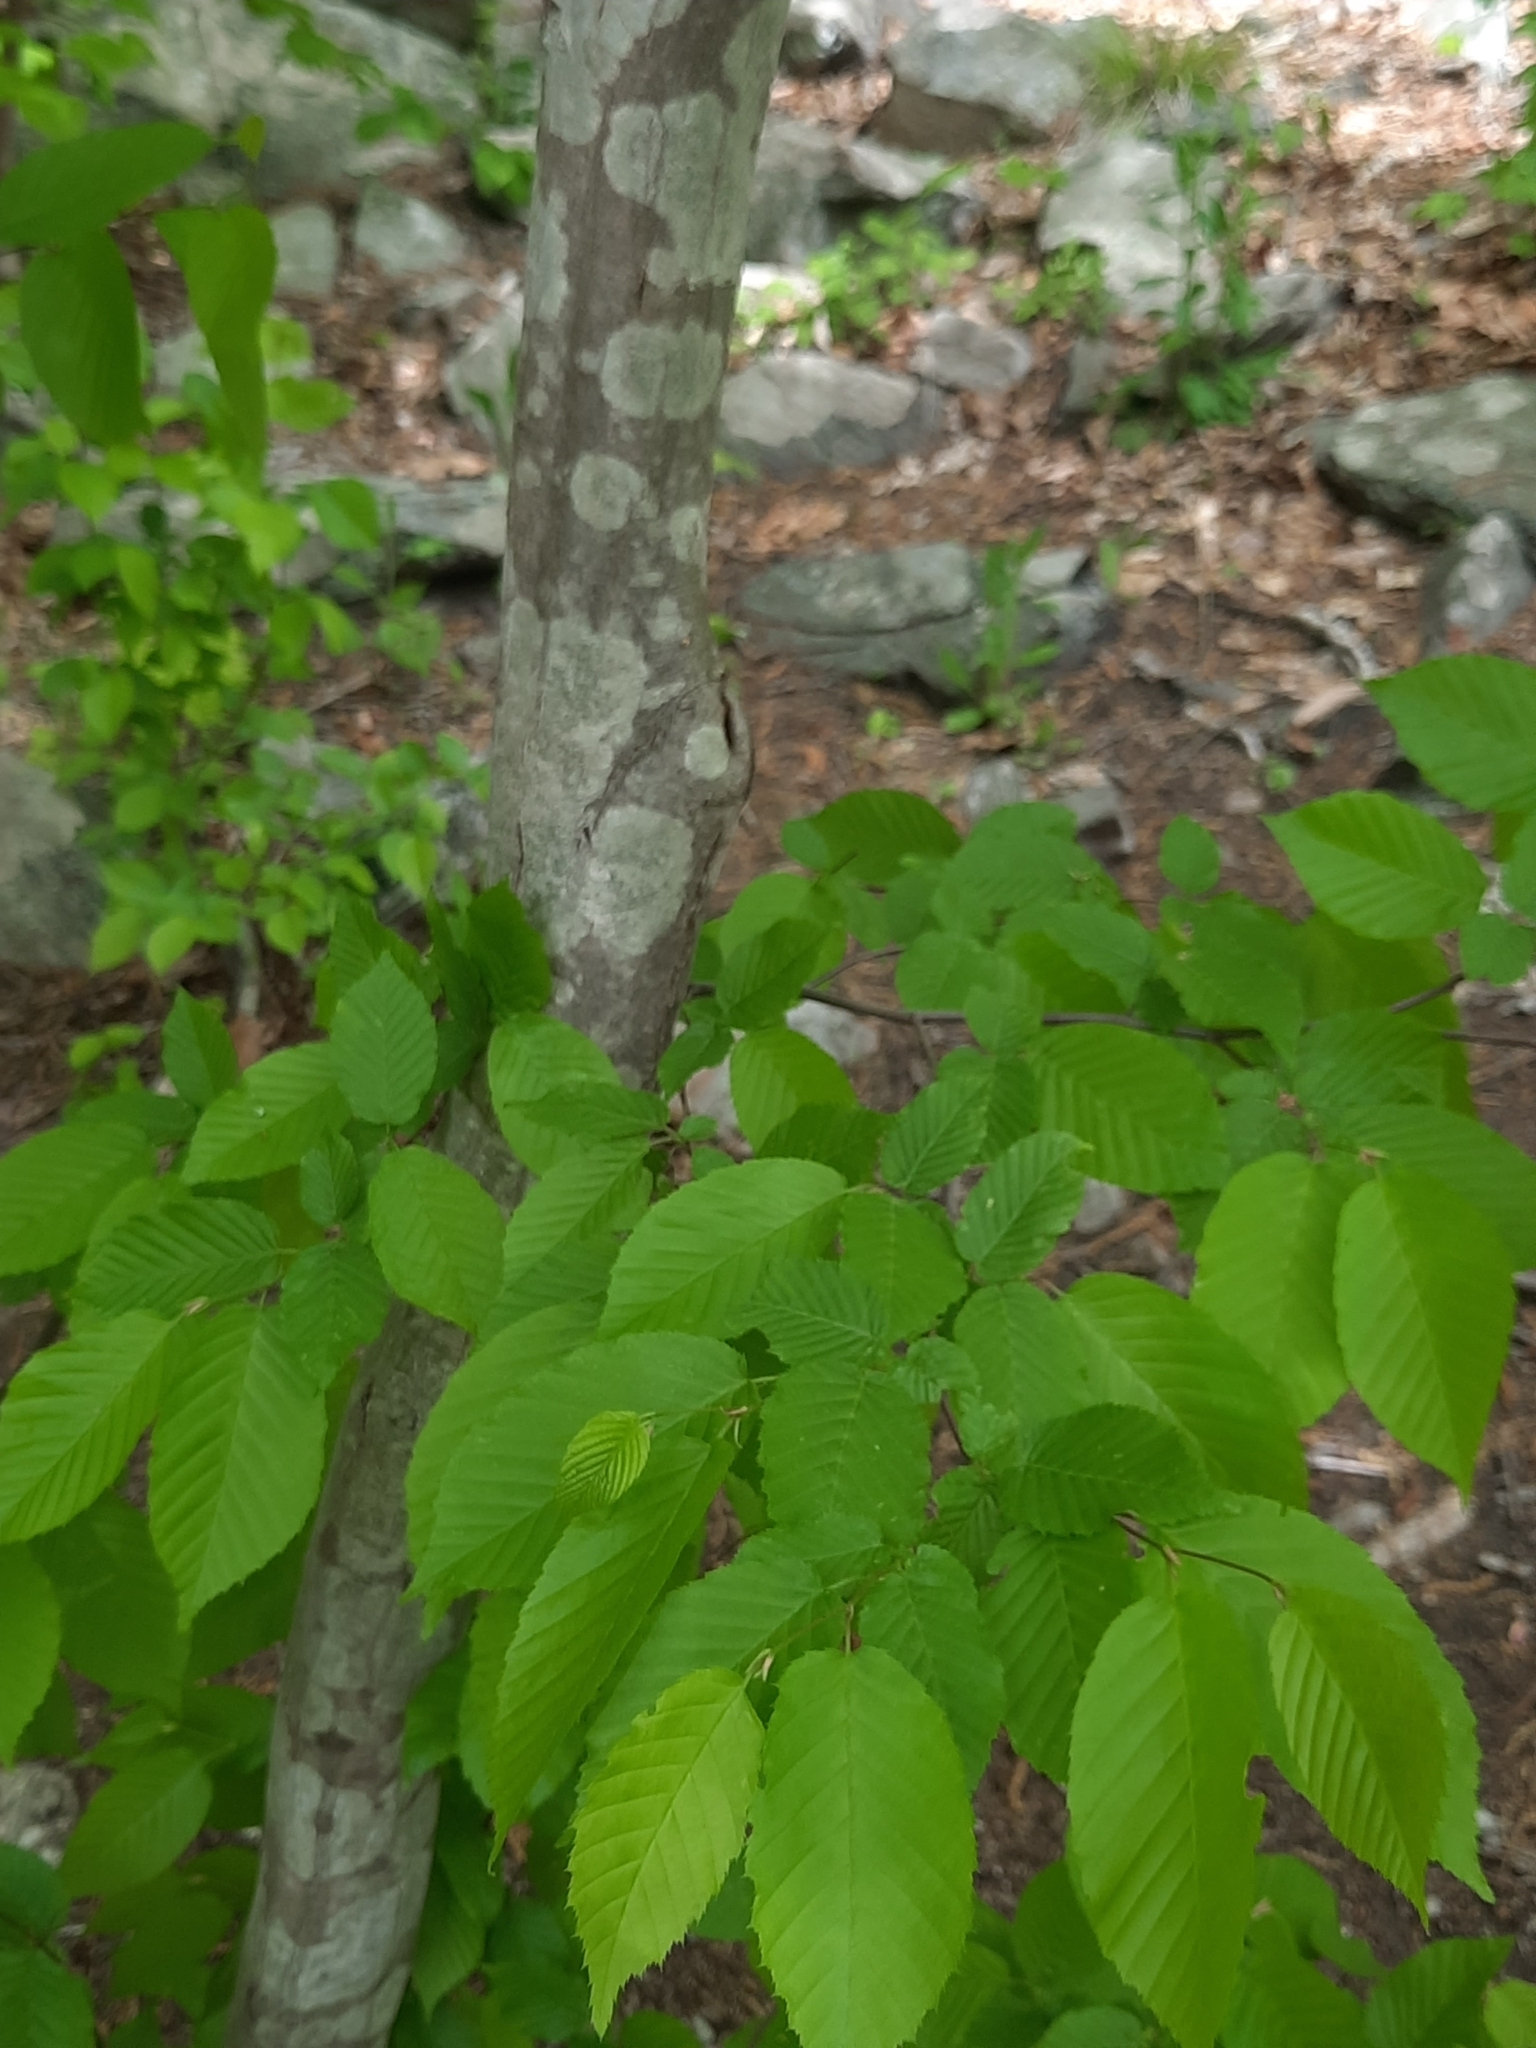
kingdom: Plantae
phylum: Tracheophyta
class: Magnoliopsida
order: Fagales
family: Betulaceae
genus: Carpinus
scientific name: Carpinus caroliniana
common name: American hornbeam
